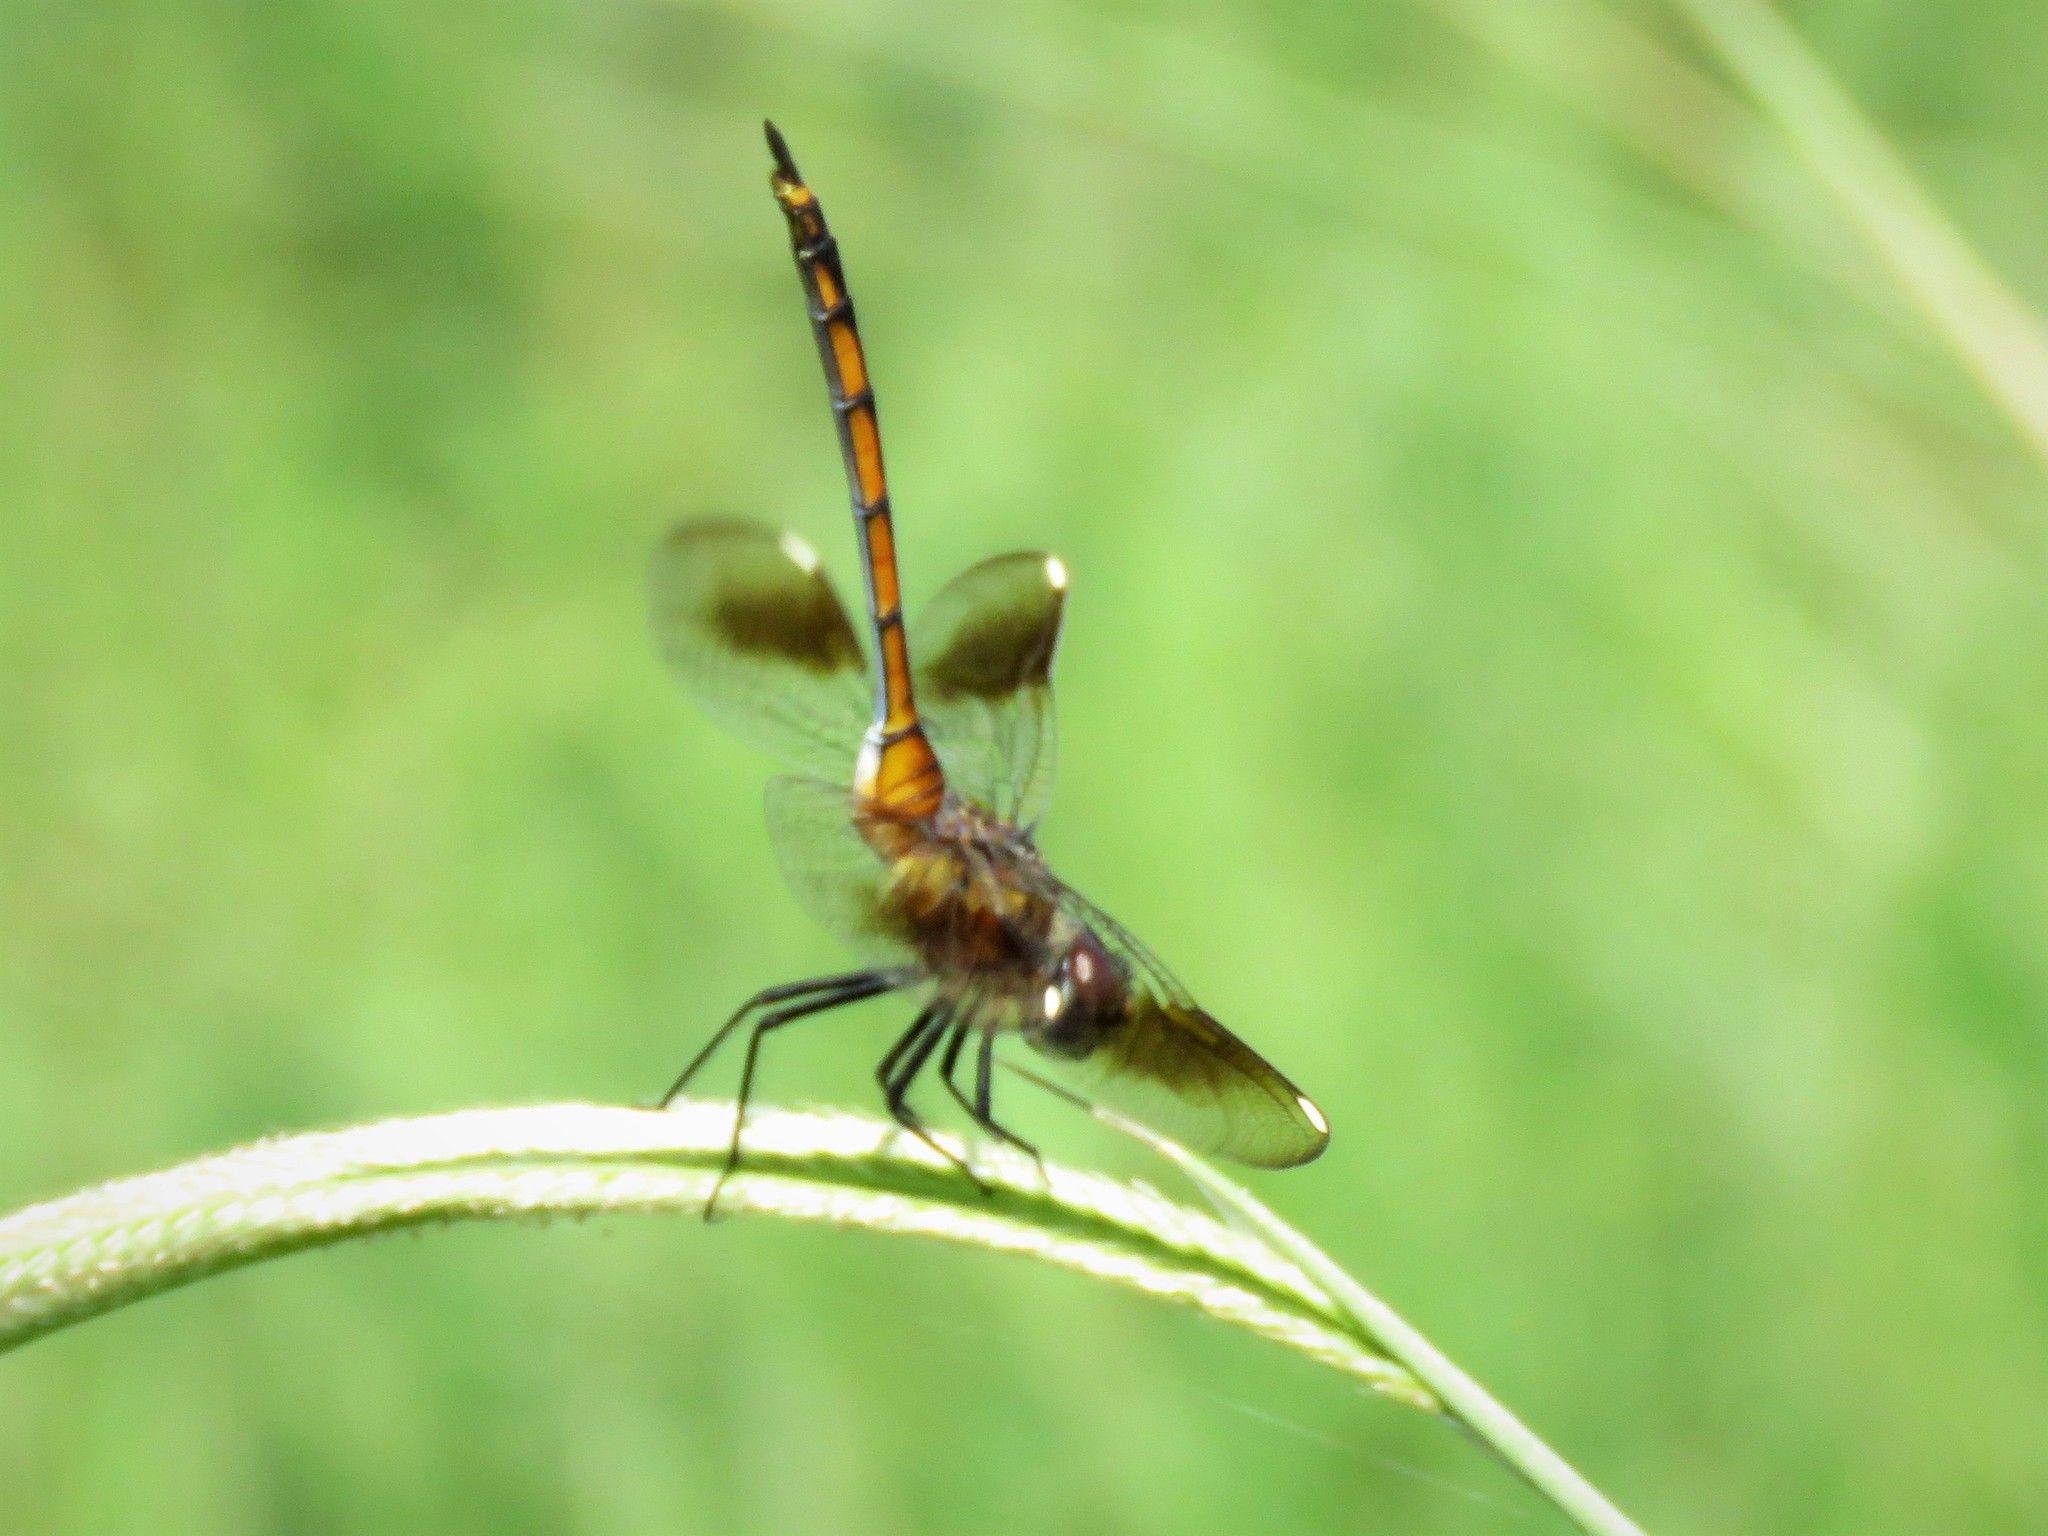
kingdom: Animalia
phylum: Arthropoda
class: Insecta
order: Odonata
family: Libellulidae
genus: Brachymesia
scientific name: Brachymesia gravida
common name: Four-spotted pennant
